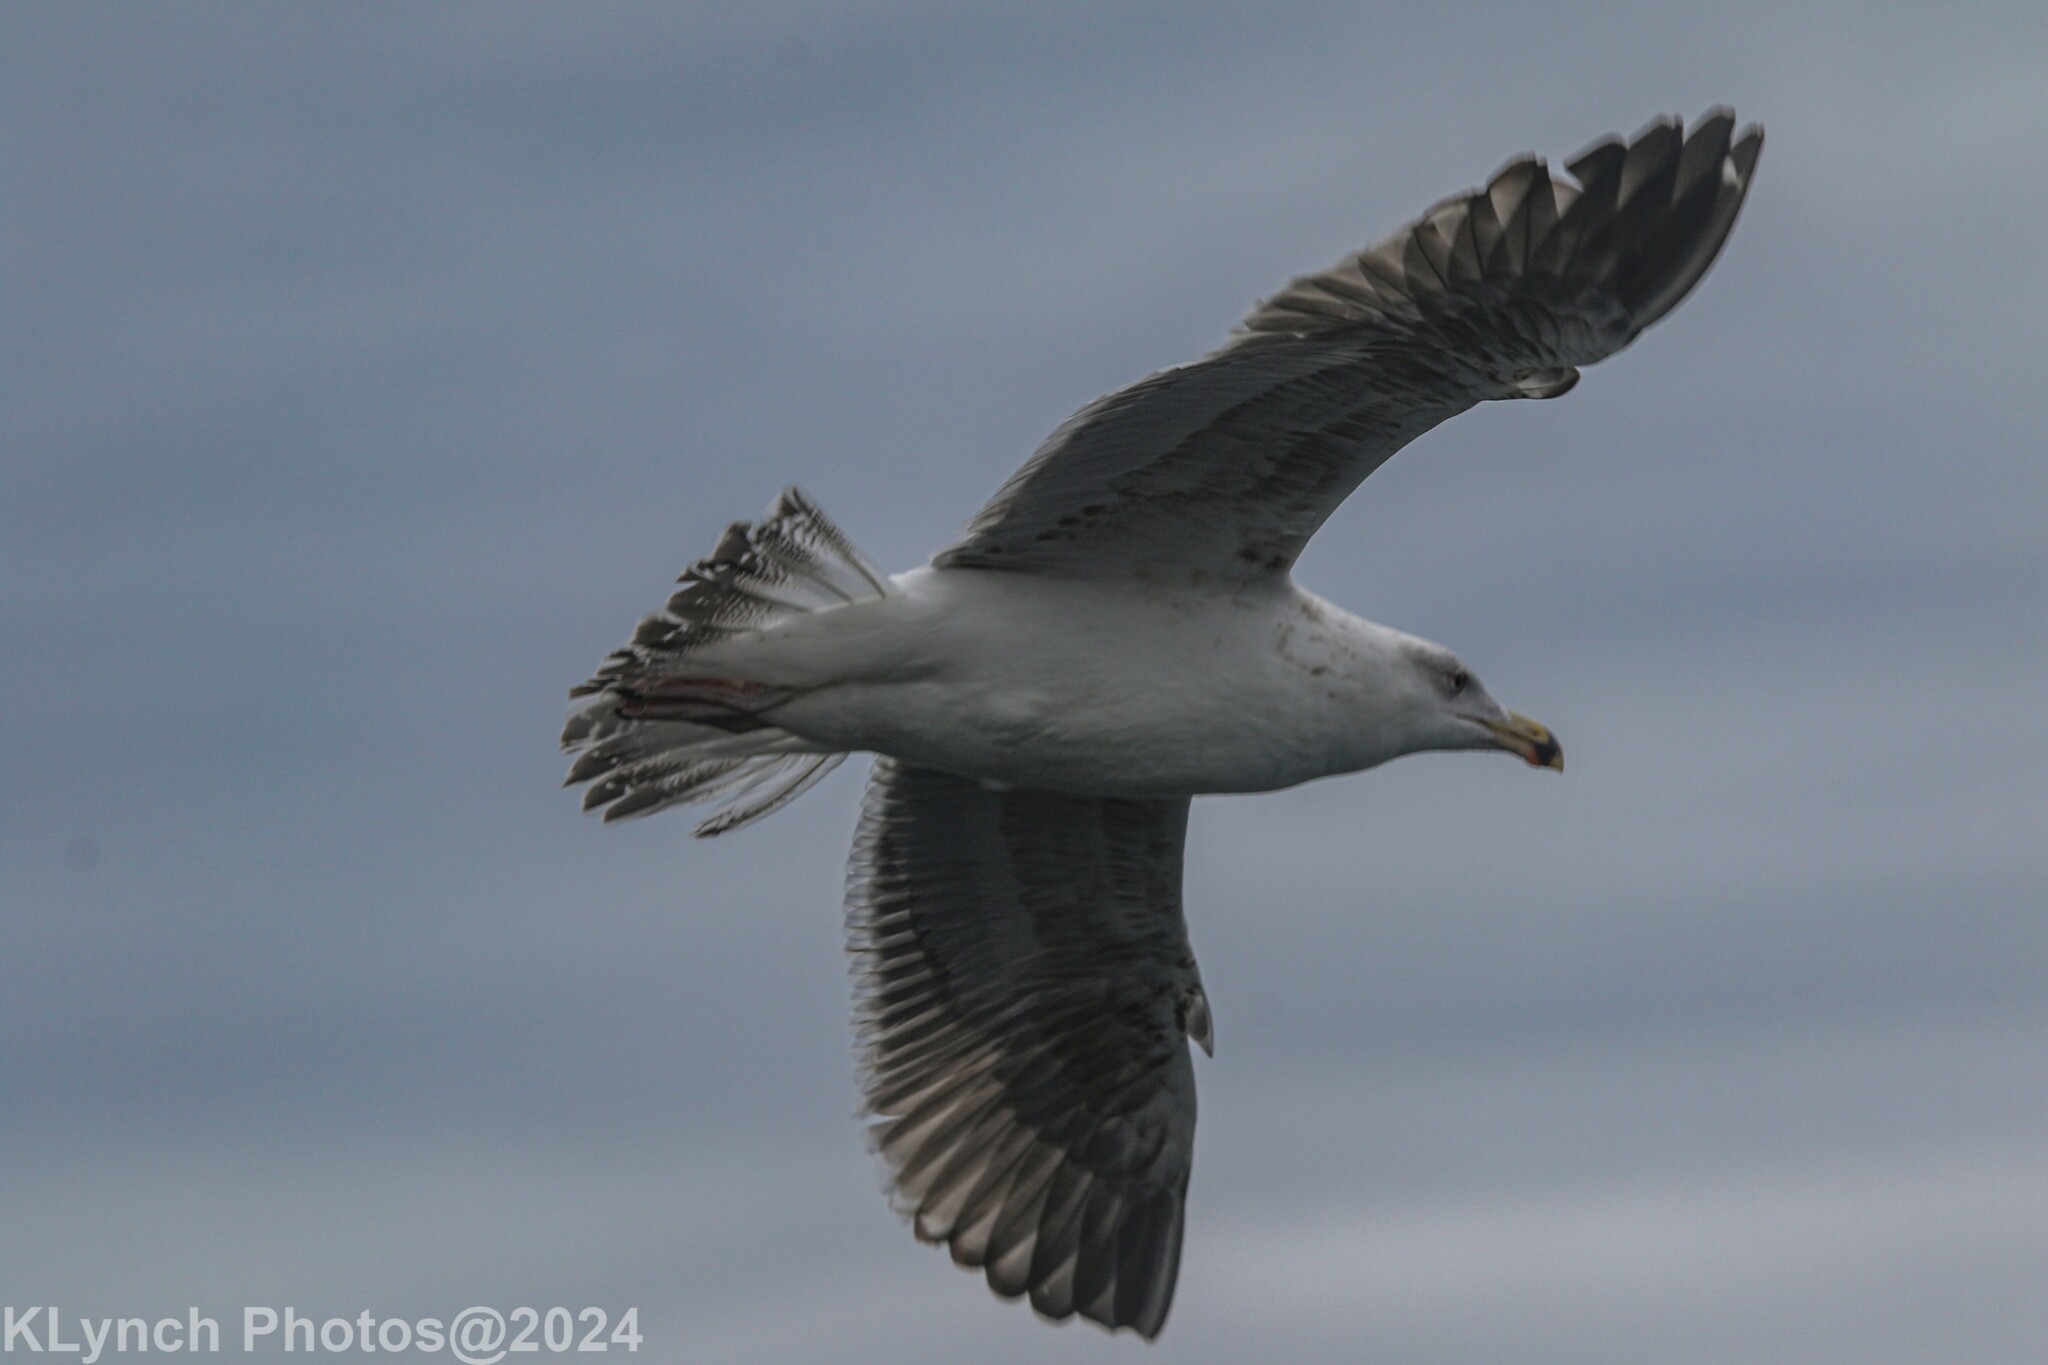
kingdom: Animalia
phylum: Chordata
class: Aves
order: Charadriiformes
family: Laridae
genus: Larus
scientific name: Larus marinus
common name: Great black-backed gull
